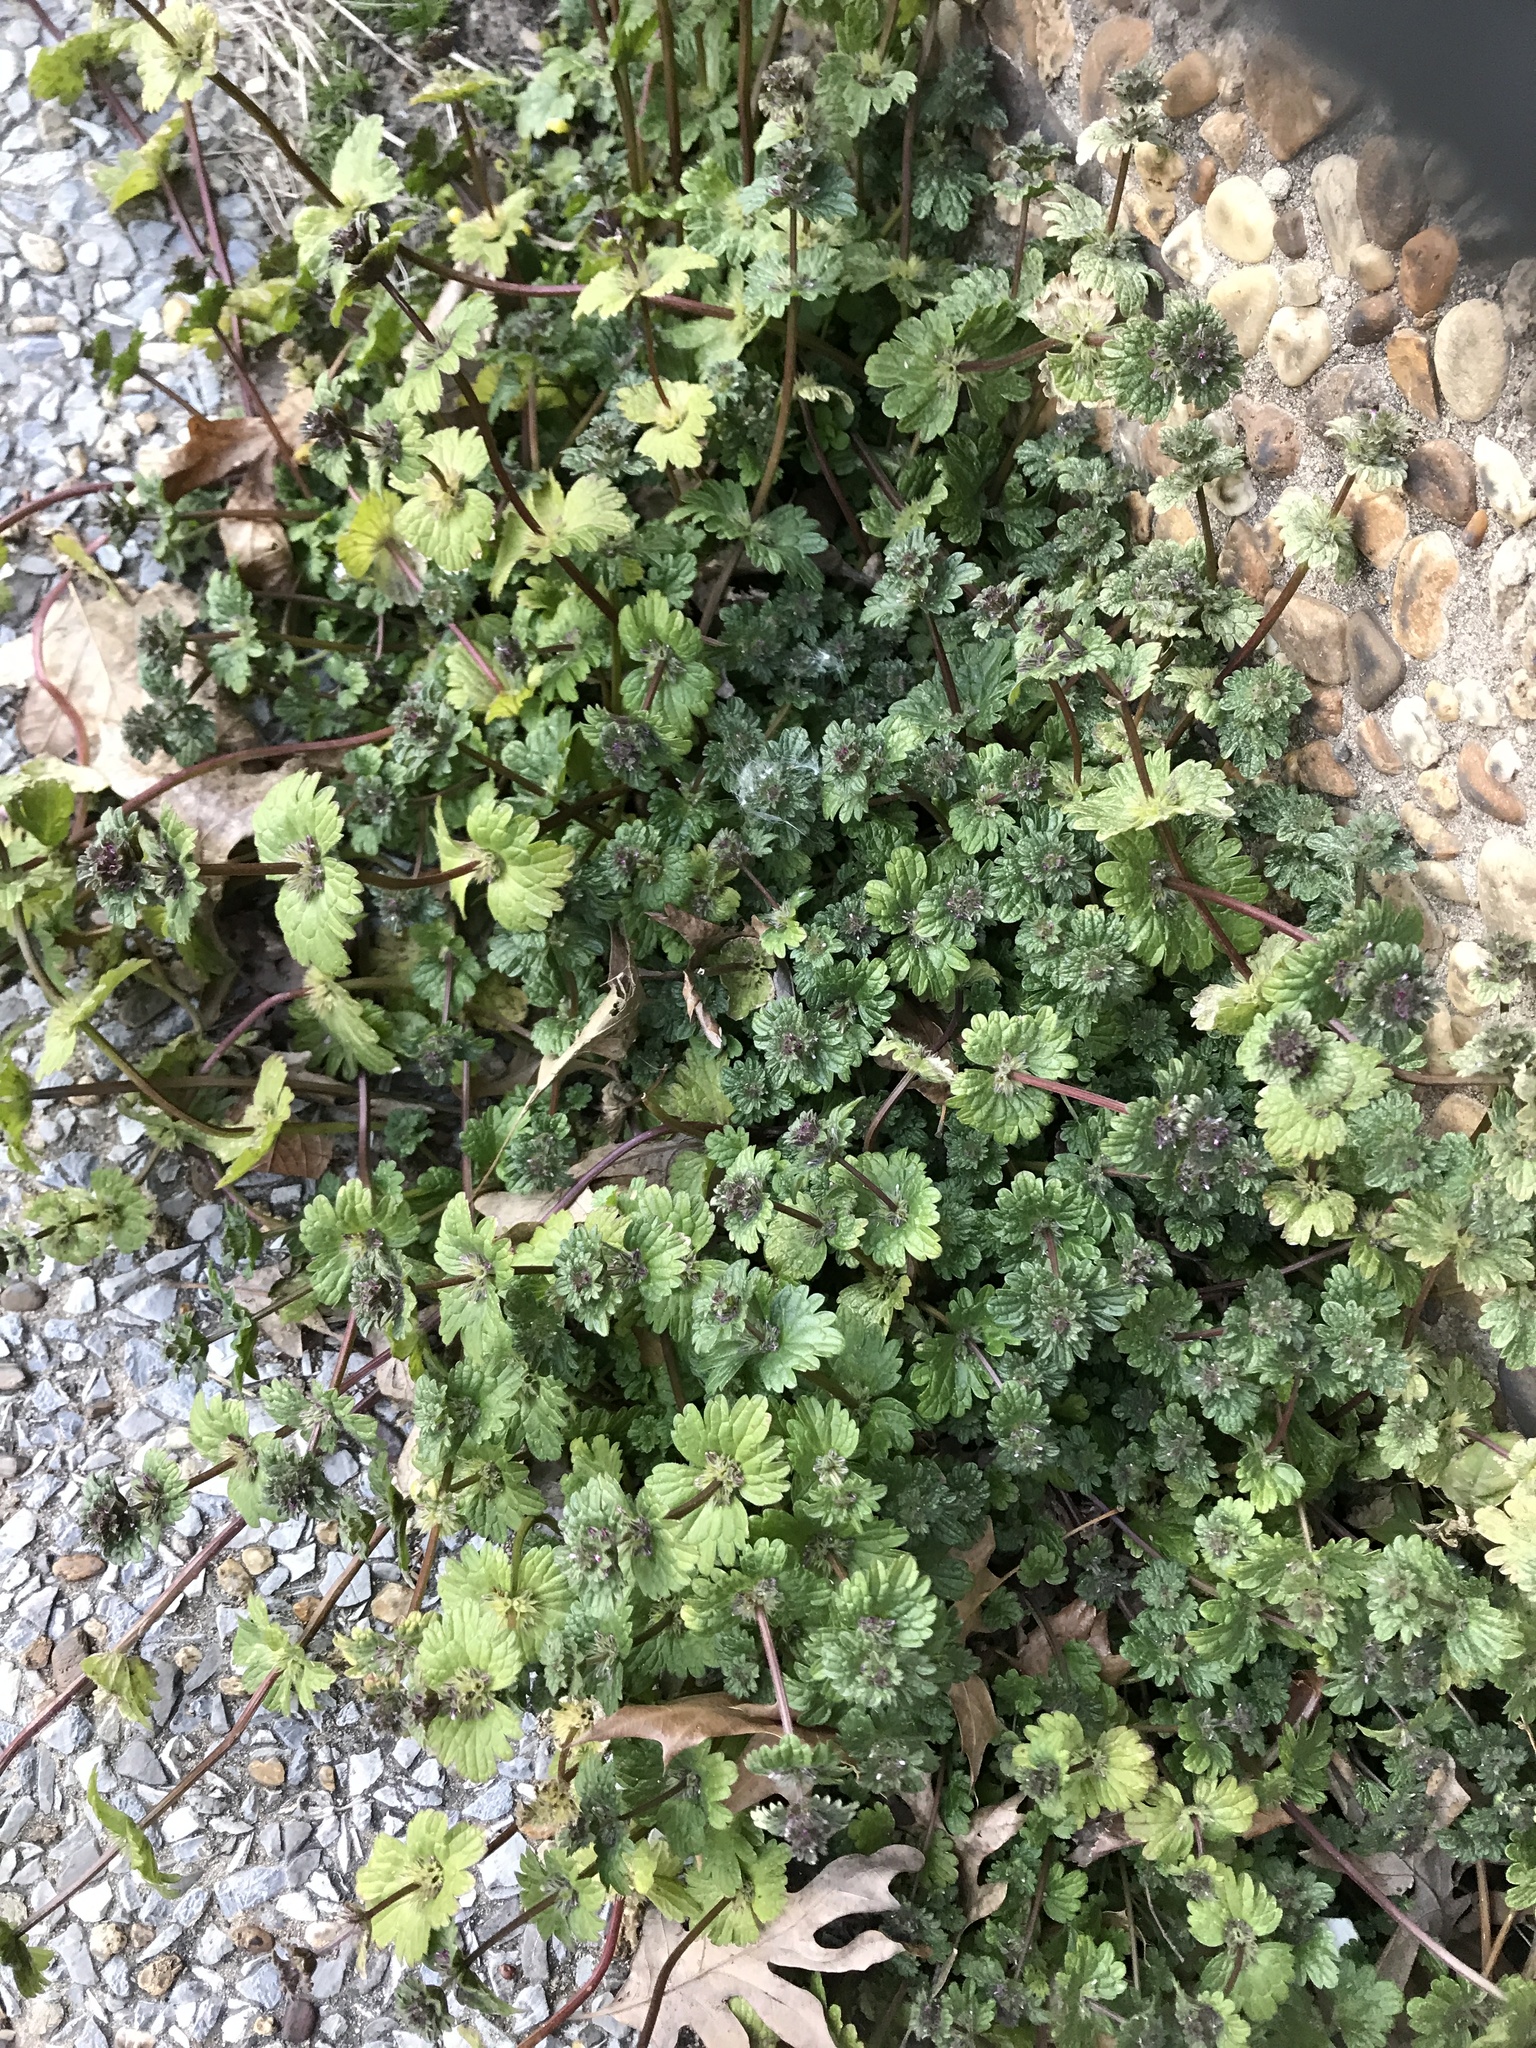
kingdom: Plantae
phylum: Tracheophyta
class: Magnoliopsida
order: Lamiales
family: Lamiaceae
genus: Lamium
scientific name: Lamium amplexicaule
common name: Henbit dead-nettle
